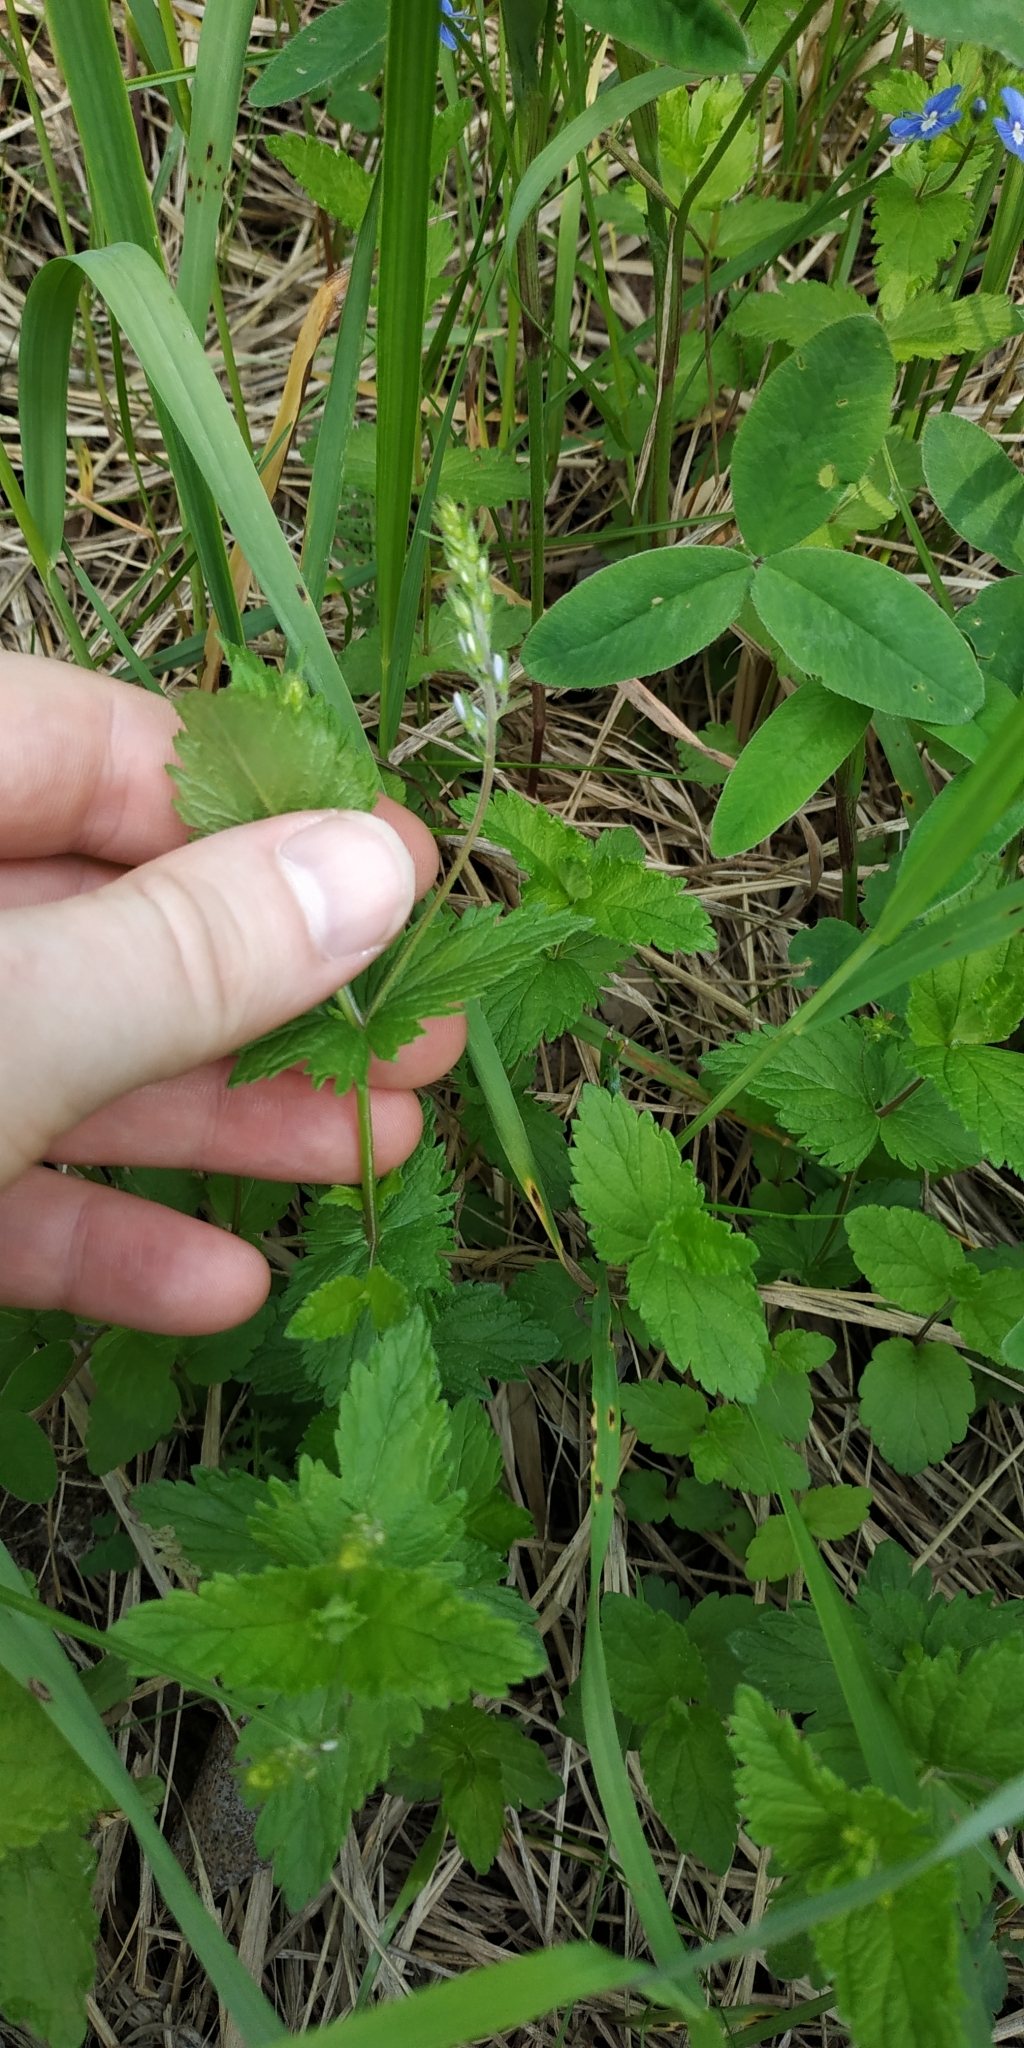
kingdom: Plantae
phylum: Tracheophyta
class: Magnoliopsida
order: Lamiales
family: Plantaginaceae
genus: Veronica
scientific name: Veronica chamaedrys
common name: Germander speedwell
